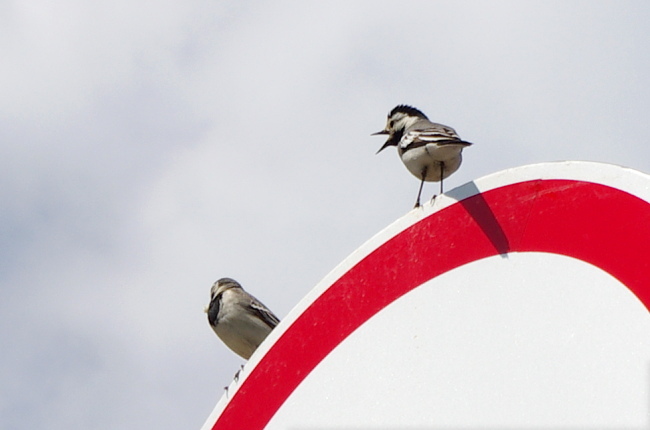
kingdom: Animalia
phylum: Chordata
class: Aves
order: Passeriformes
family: Motacillidae
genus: Motacilla
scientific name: Motacilla alba
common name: White wagtail
